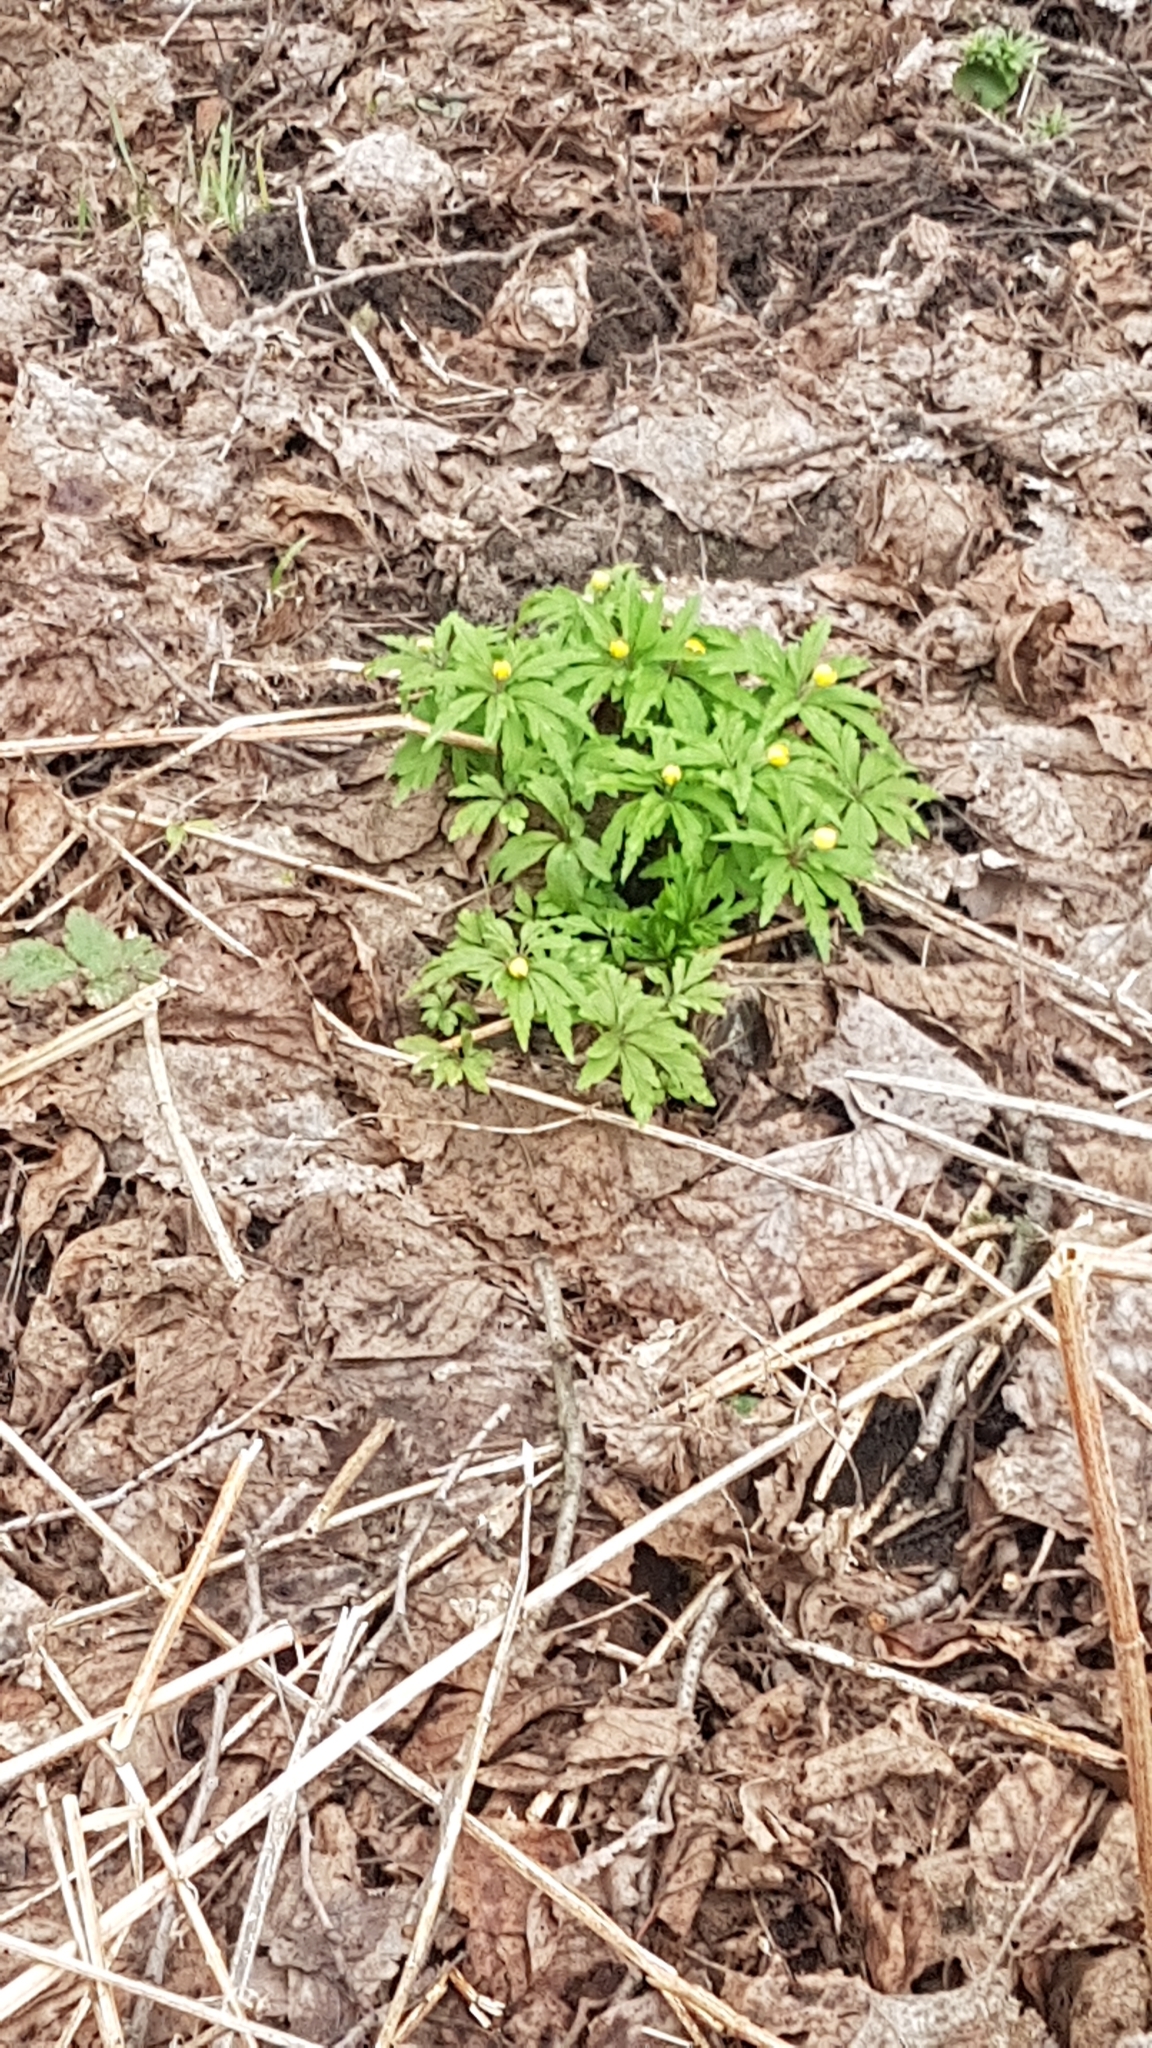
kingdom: Plantae
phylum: Tracheophyta
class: Magnoliopsida
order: Ranunculales
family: Ranunculaceae
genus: Anemone
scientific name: Anemone ranunculoides
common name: Yellow anemone
